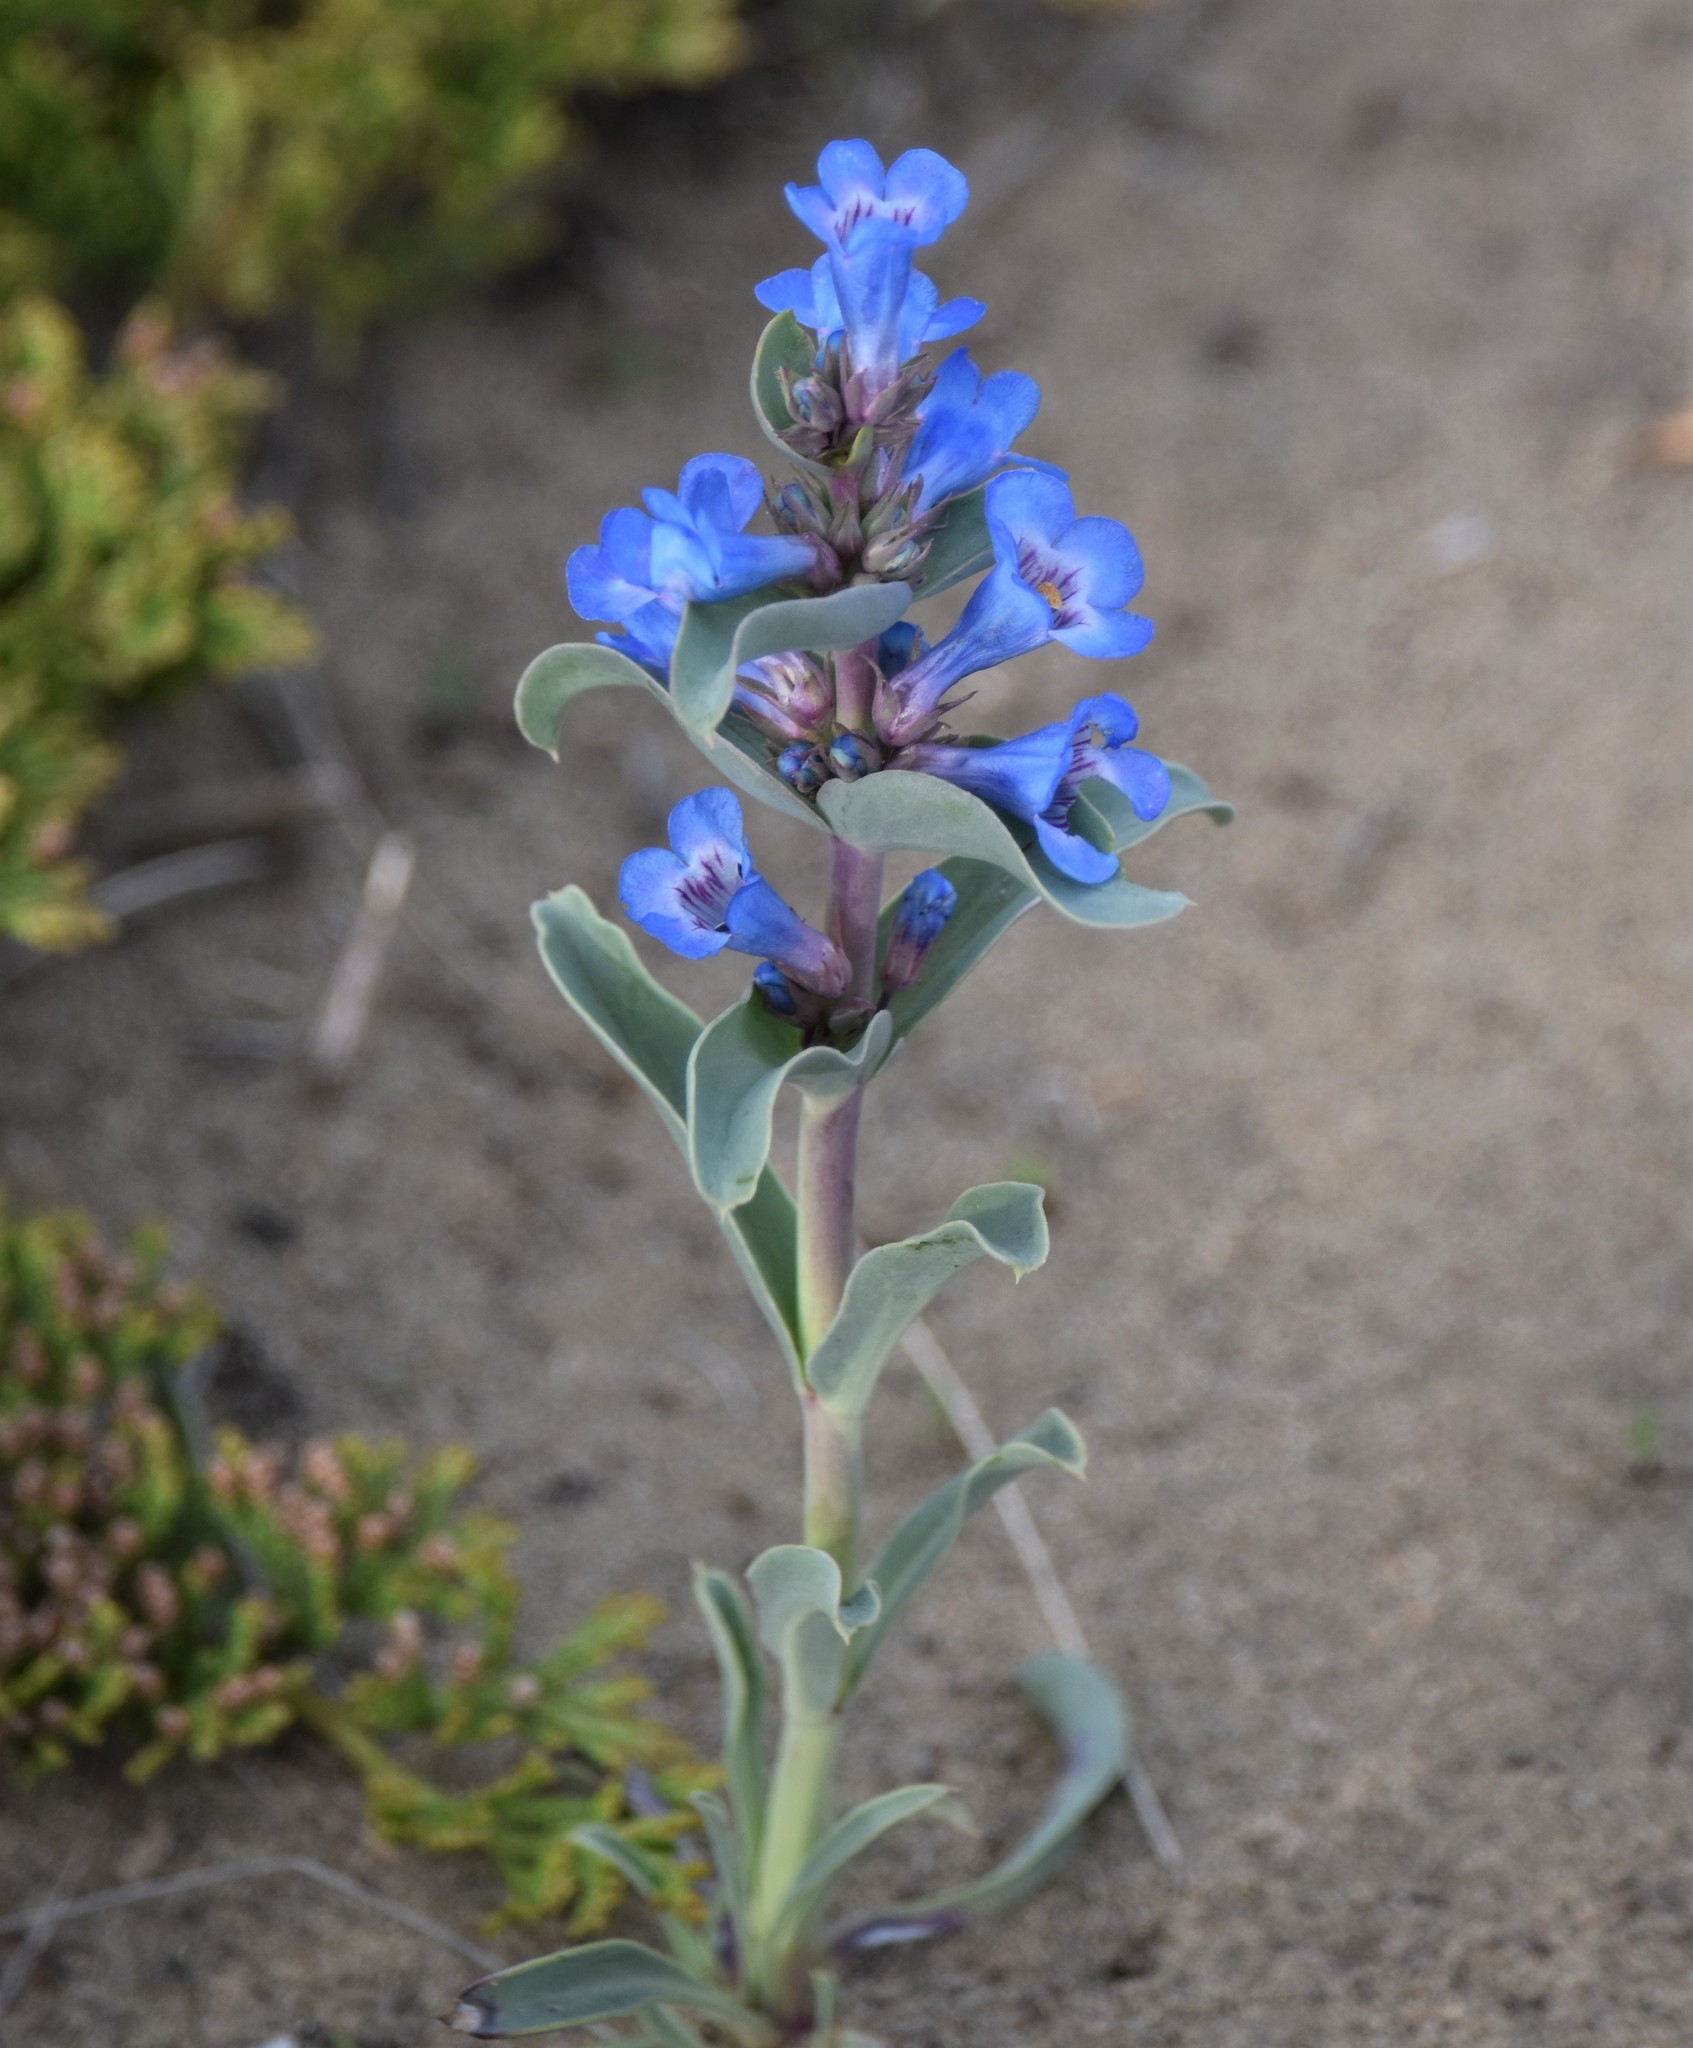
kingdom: Plantae
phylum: Tracheophyta
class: Magnoliopsida
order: Lamiales
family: Plantaginaceae
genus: Penstemon
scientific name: Penstemon nitidus
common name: Shining penstemon
